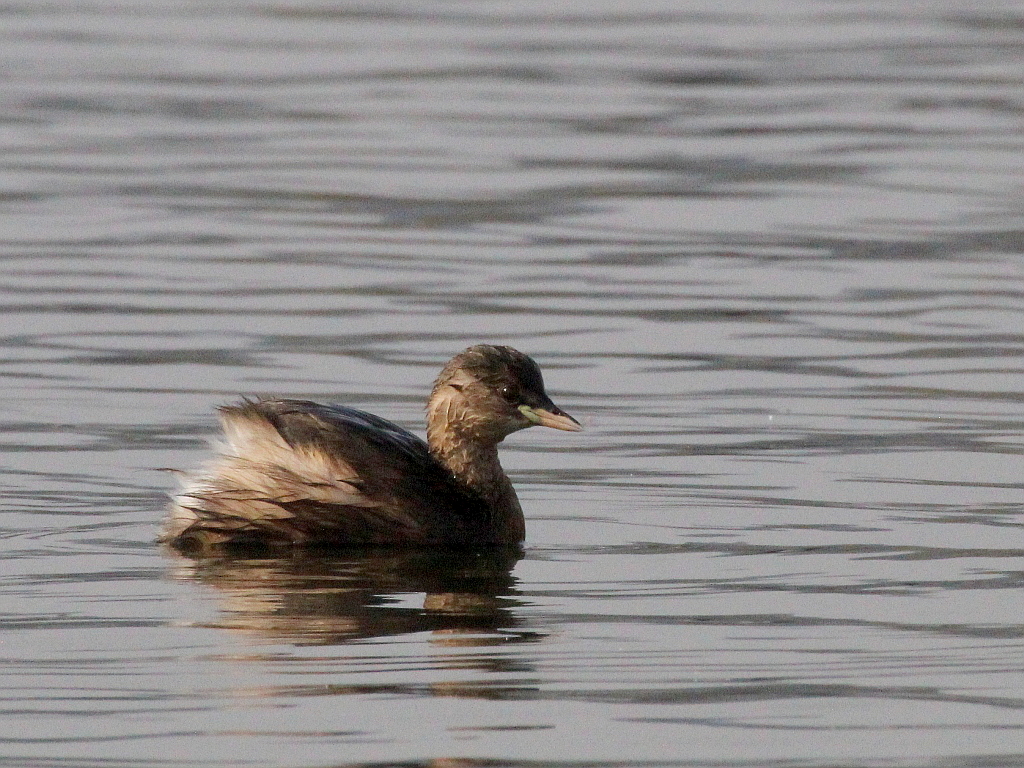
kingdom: Animalia
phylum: Chordata
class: Aves
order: Podicipediformes
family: Podicipedidae
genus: Tachybaptus
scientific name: Tachybaptus ruficollis
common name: Little grebe
